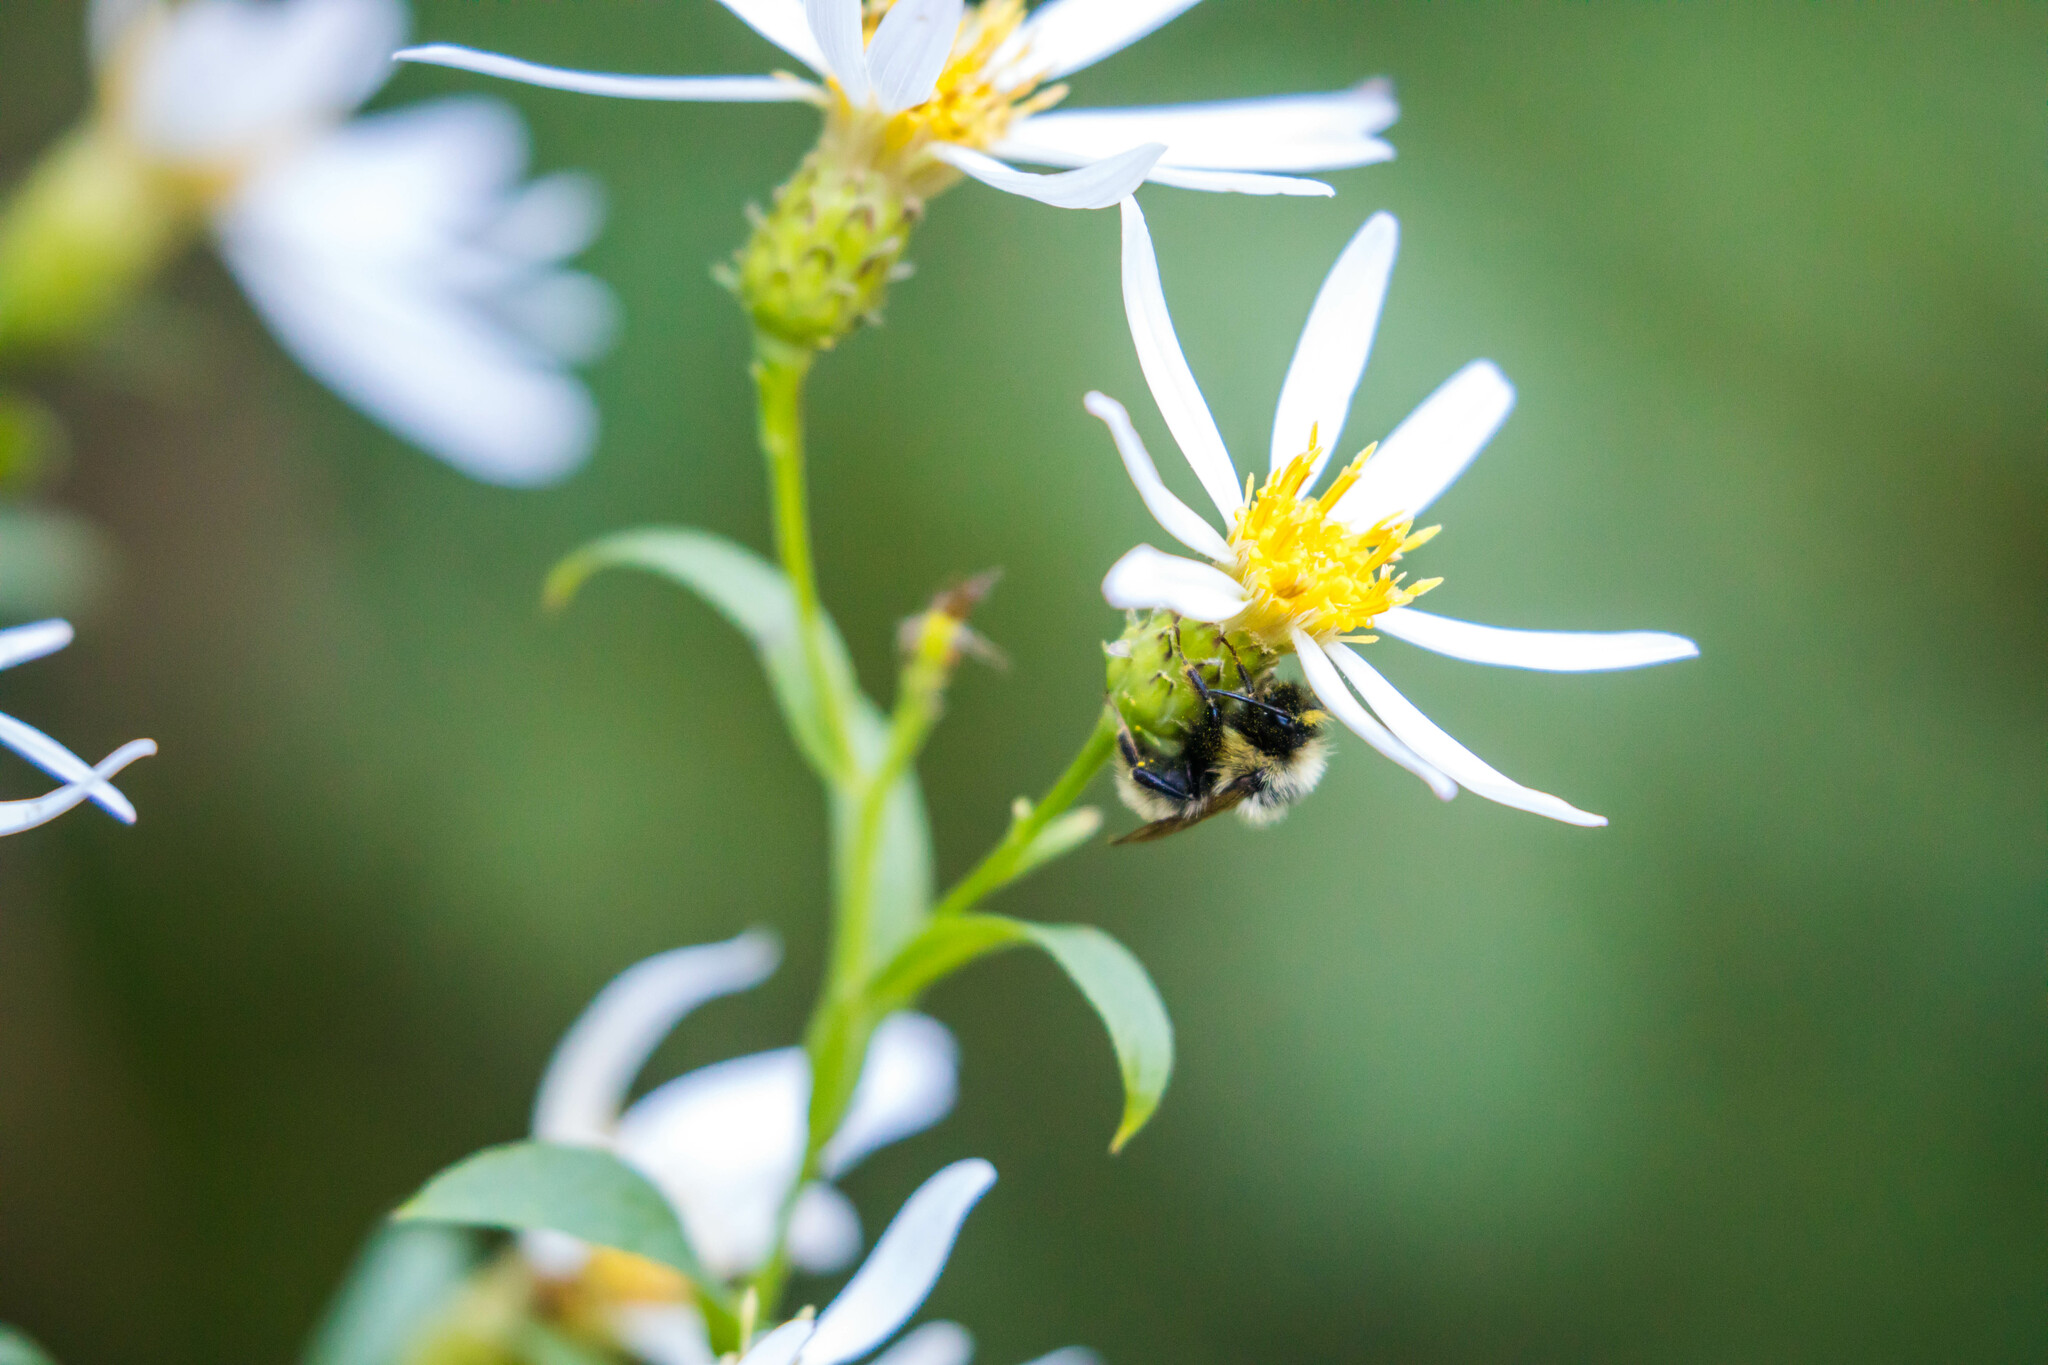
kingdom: Animalia
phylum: Arthropoda
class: Insecta
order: Hymenoptera
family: Apidae
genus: Bombus
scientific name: Bombus insularis
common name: Indiscriminate cuckoo bumble bee
